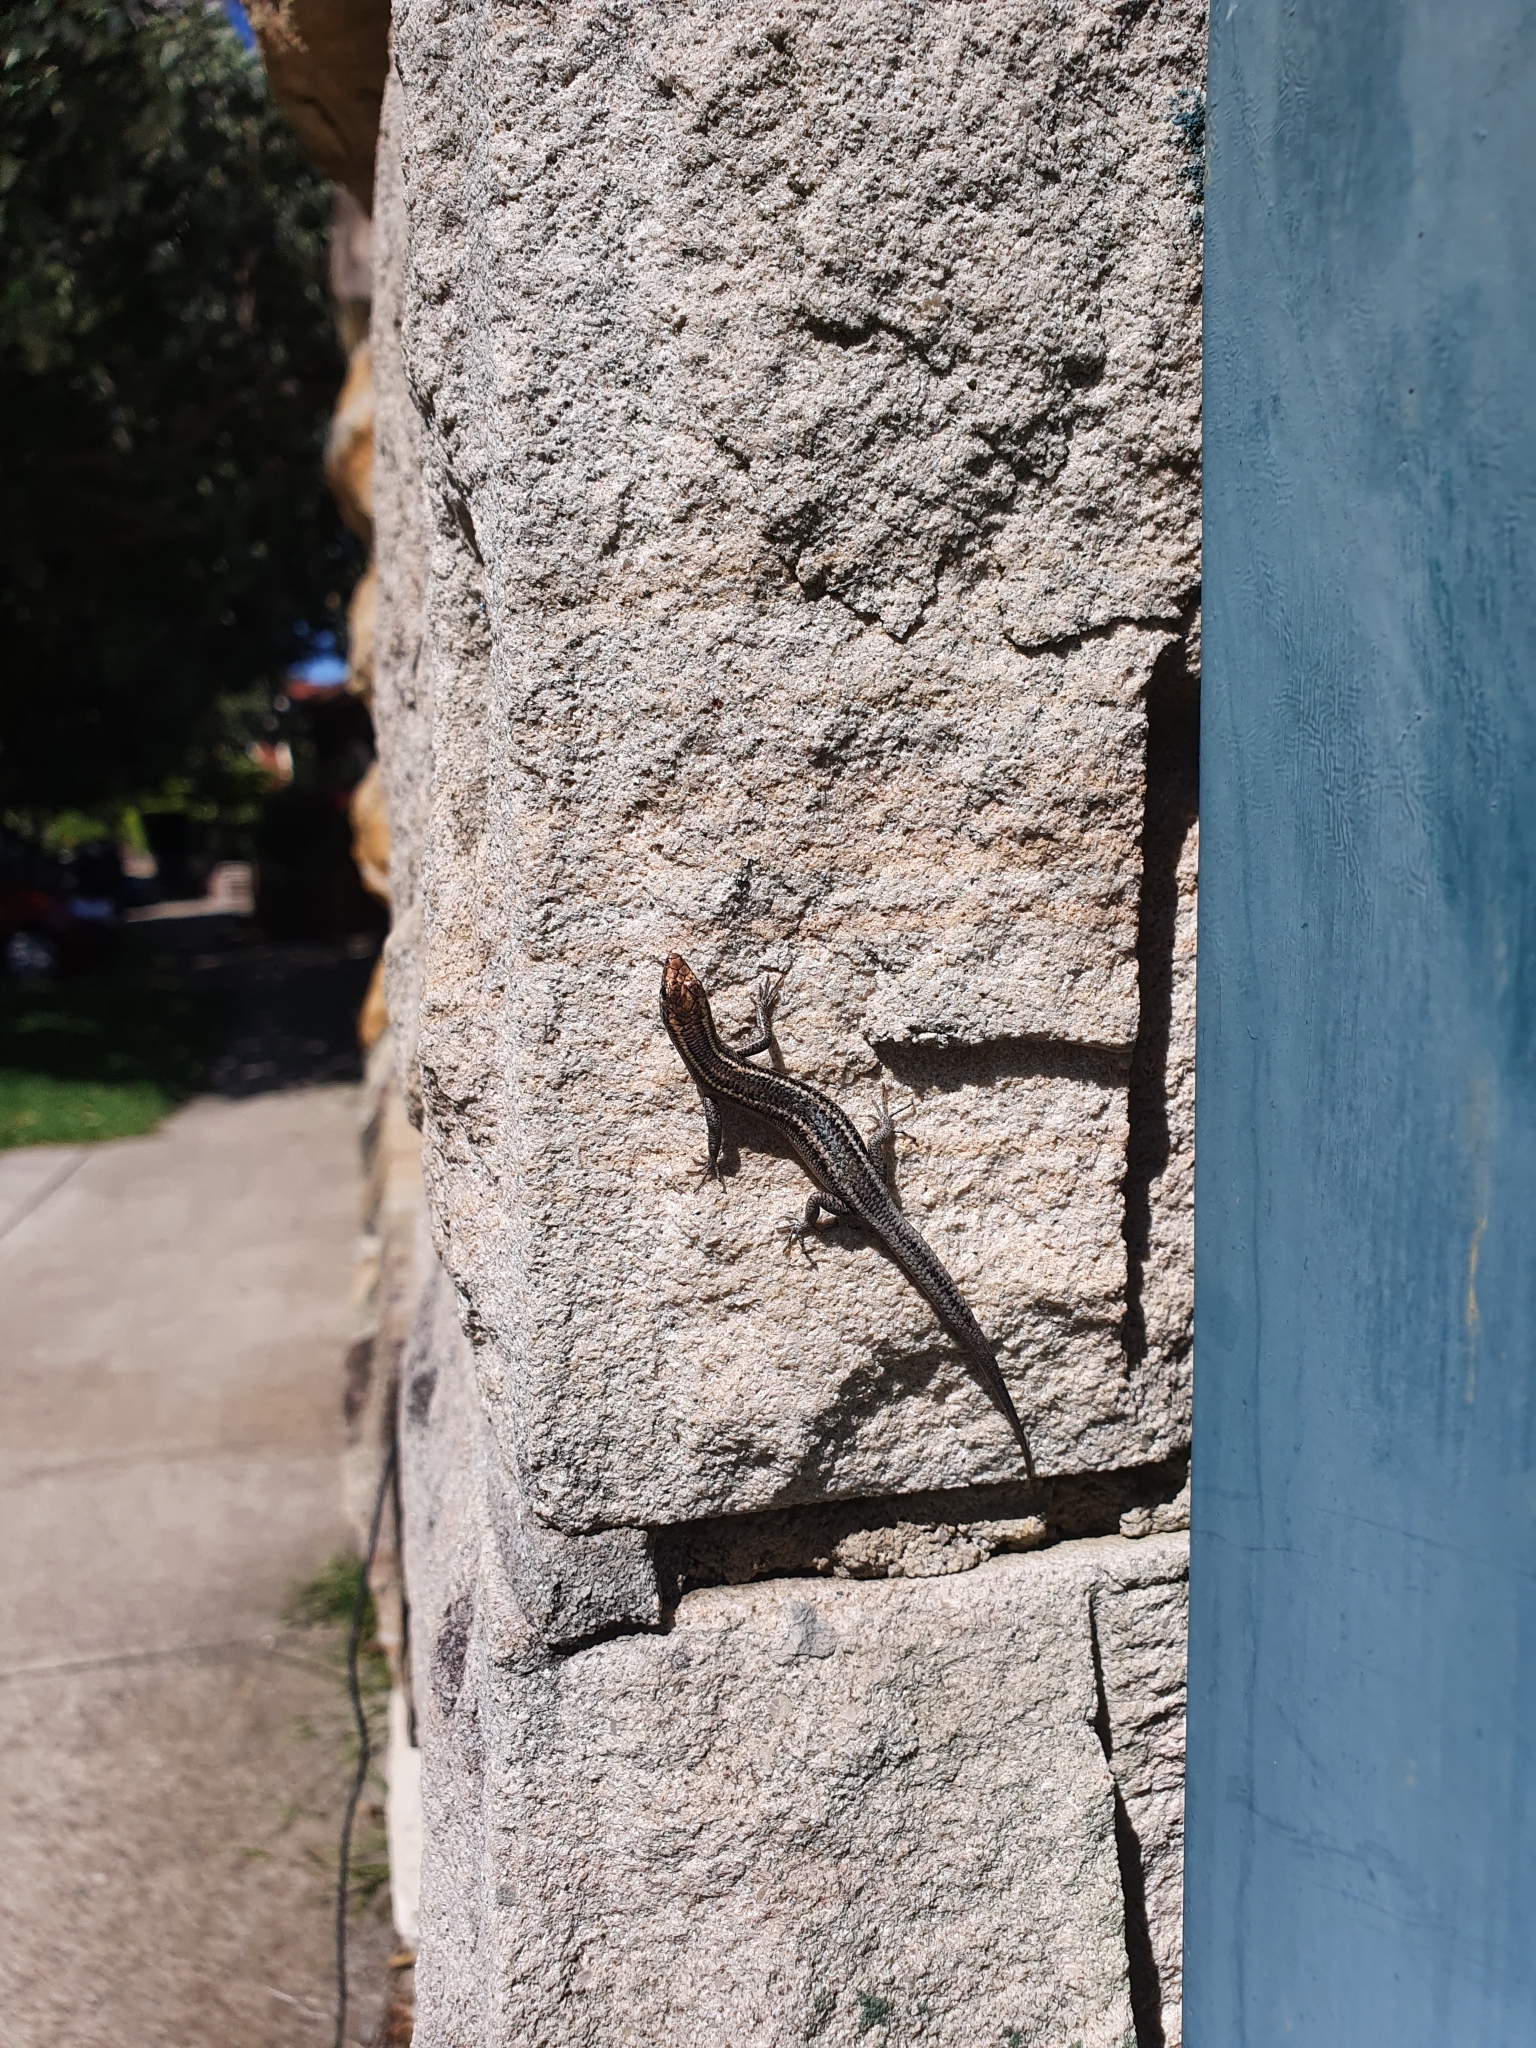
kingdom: Animalia
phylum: Chordata
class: Squamata
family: Scincidae
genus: Cryptoblepharus
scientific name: Cryptoblepharus pulcher
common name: Elegant snake-eyed skink
